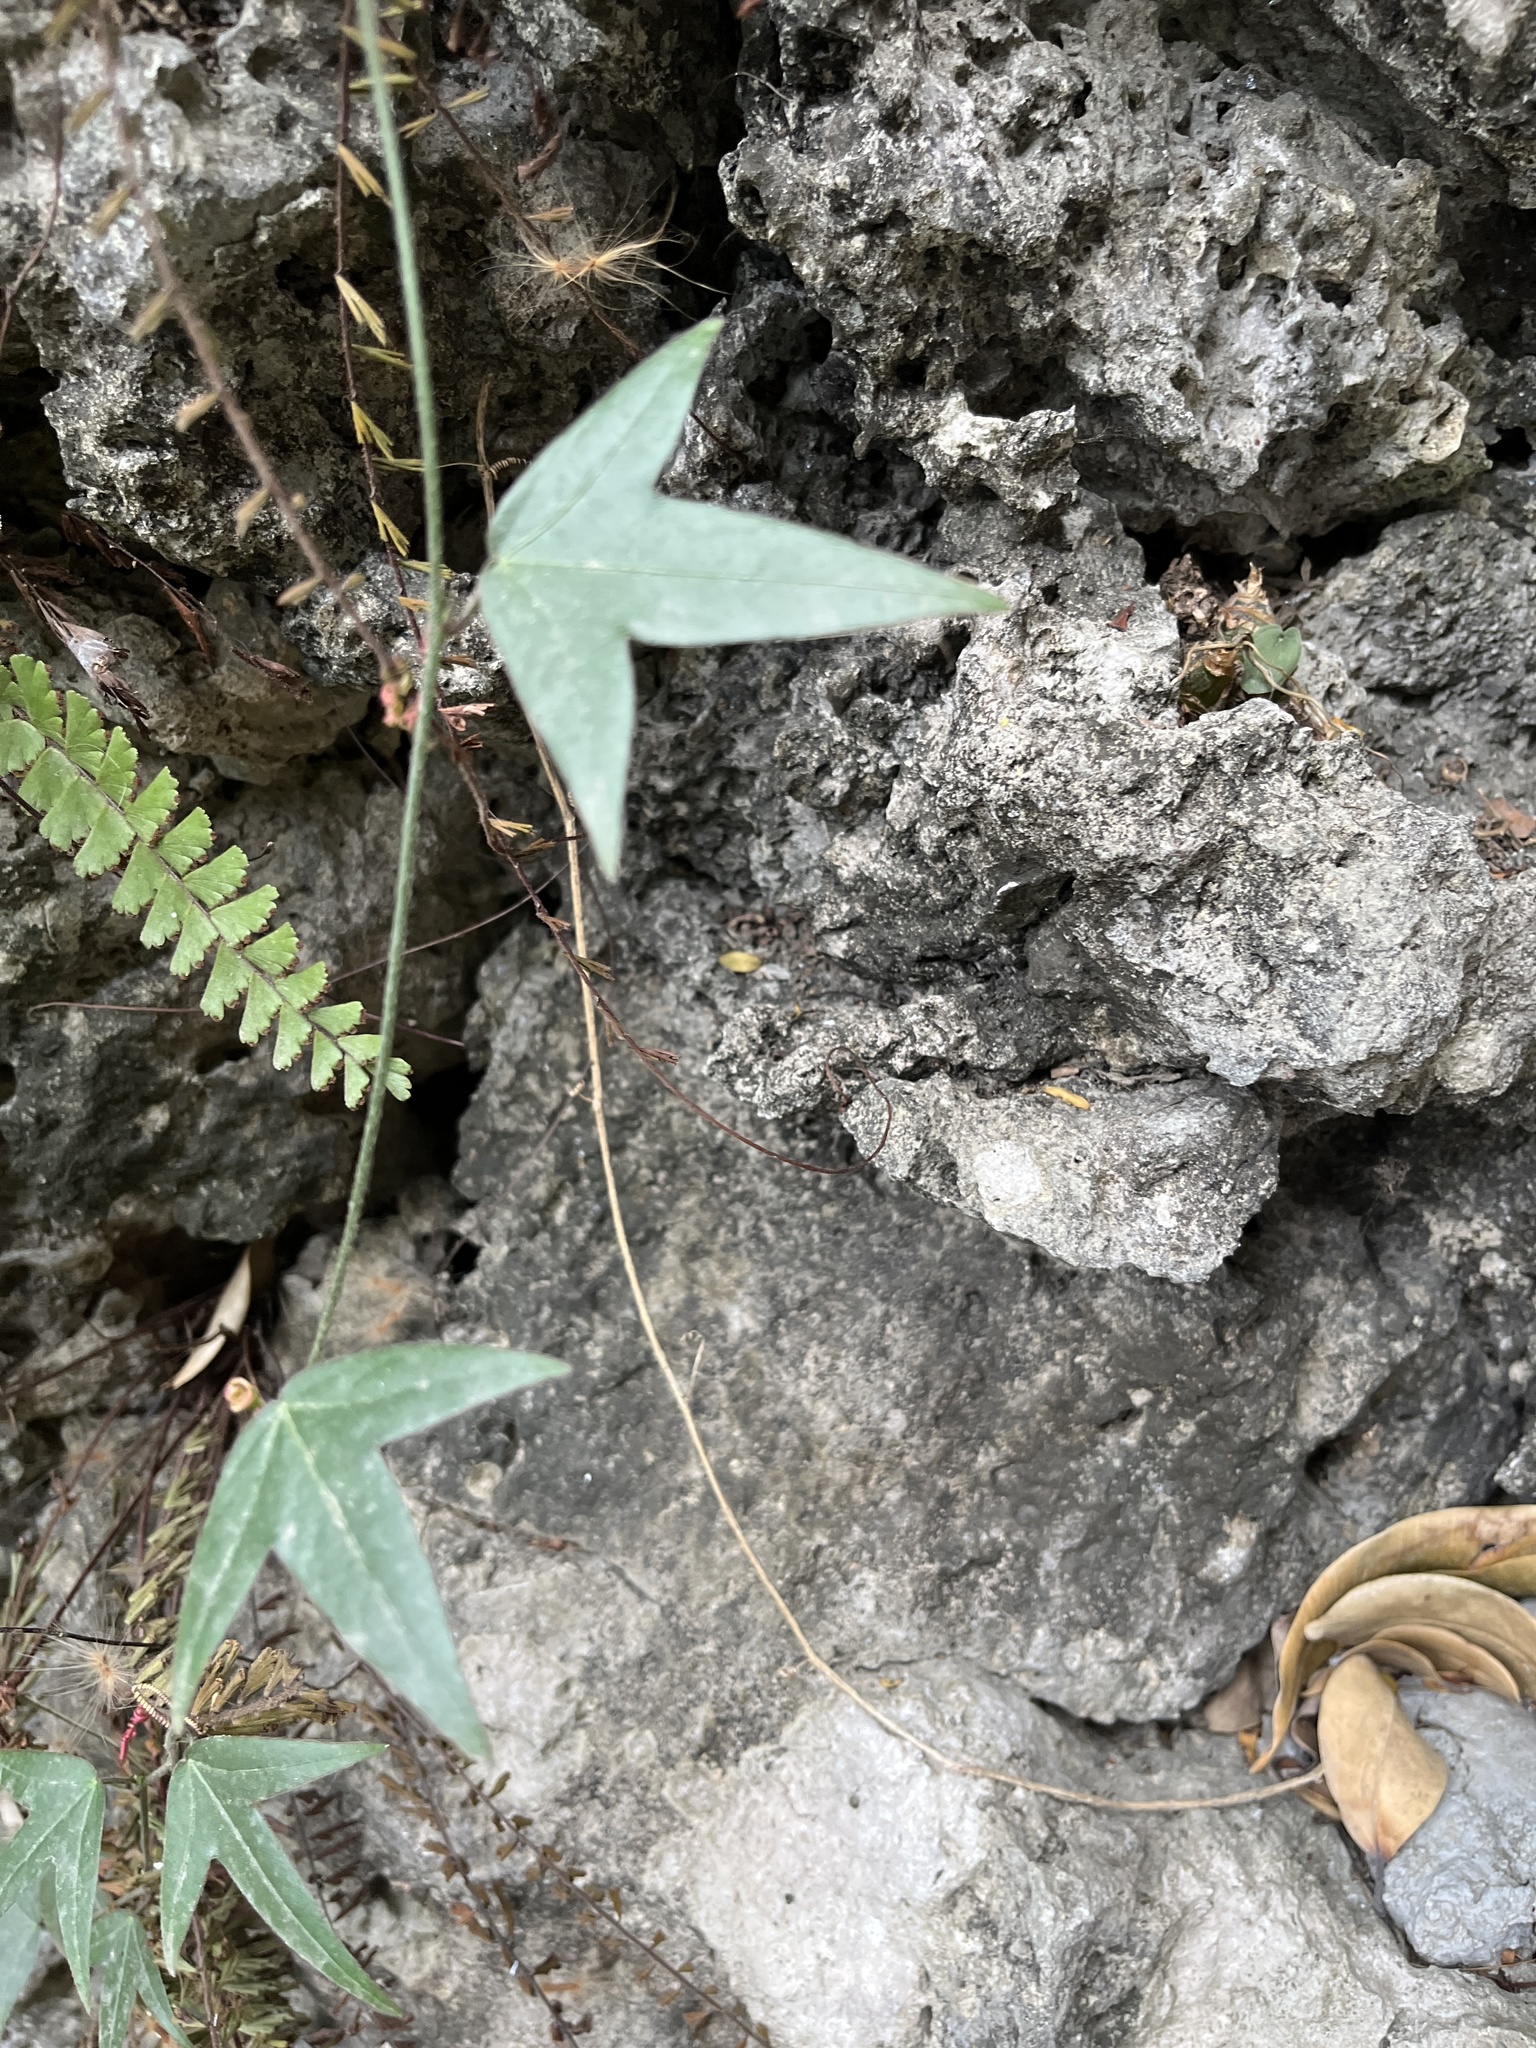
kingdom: Plantae
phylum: Tracheophyta
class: Magnoliopsida
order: Malpighiales
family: Passifloraceae
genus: Passiflora
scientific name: Passiflora suberosa
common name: Wild passionfruit
